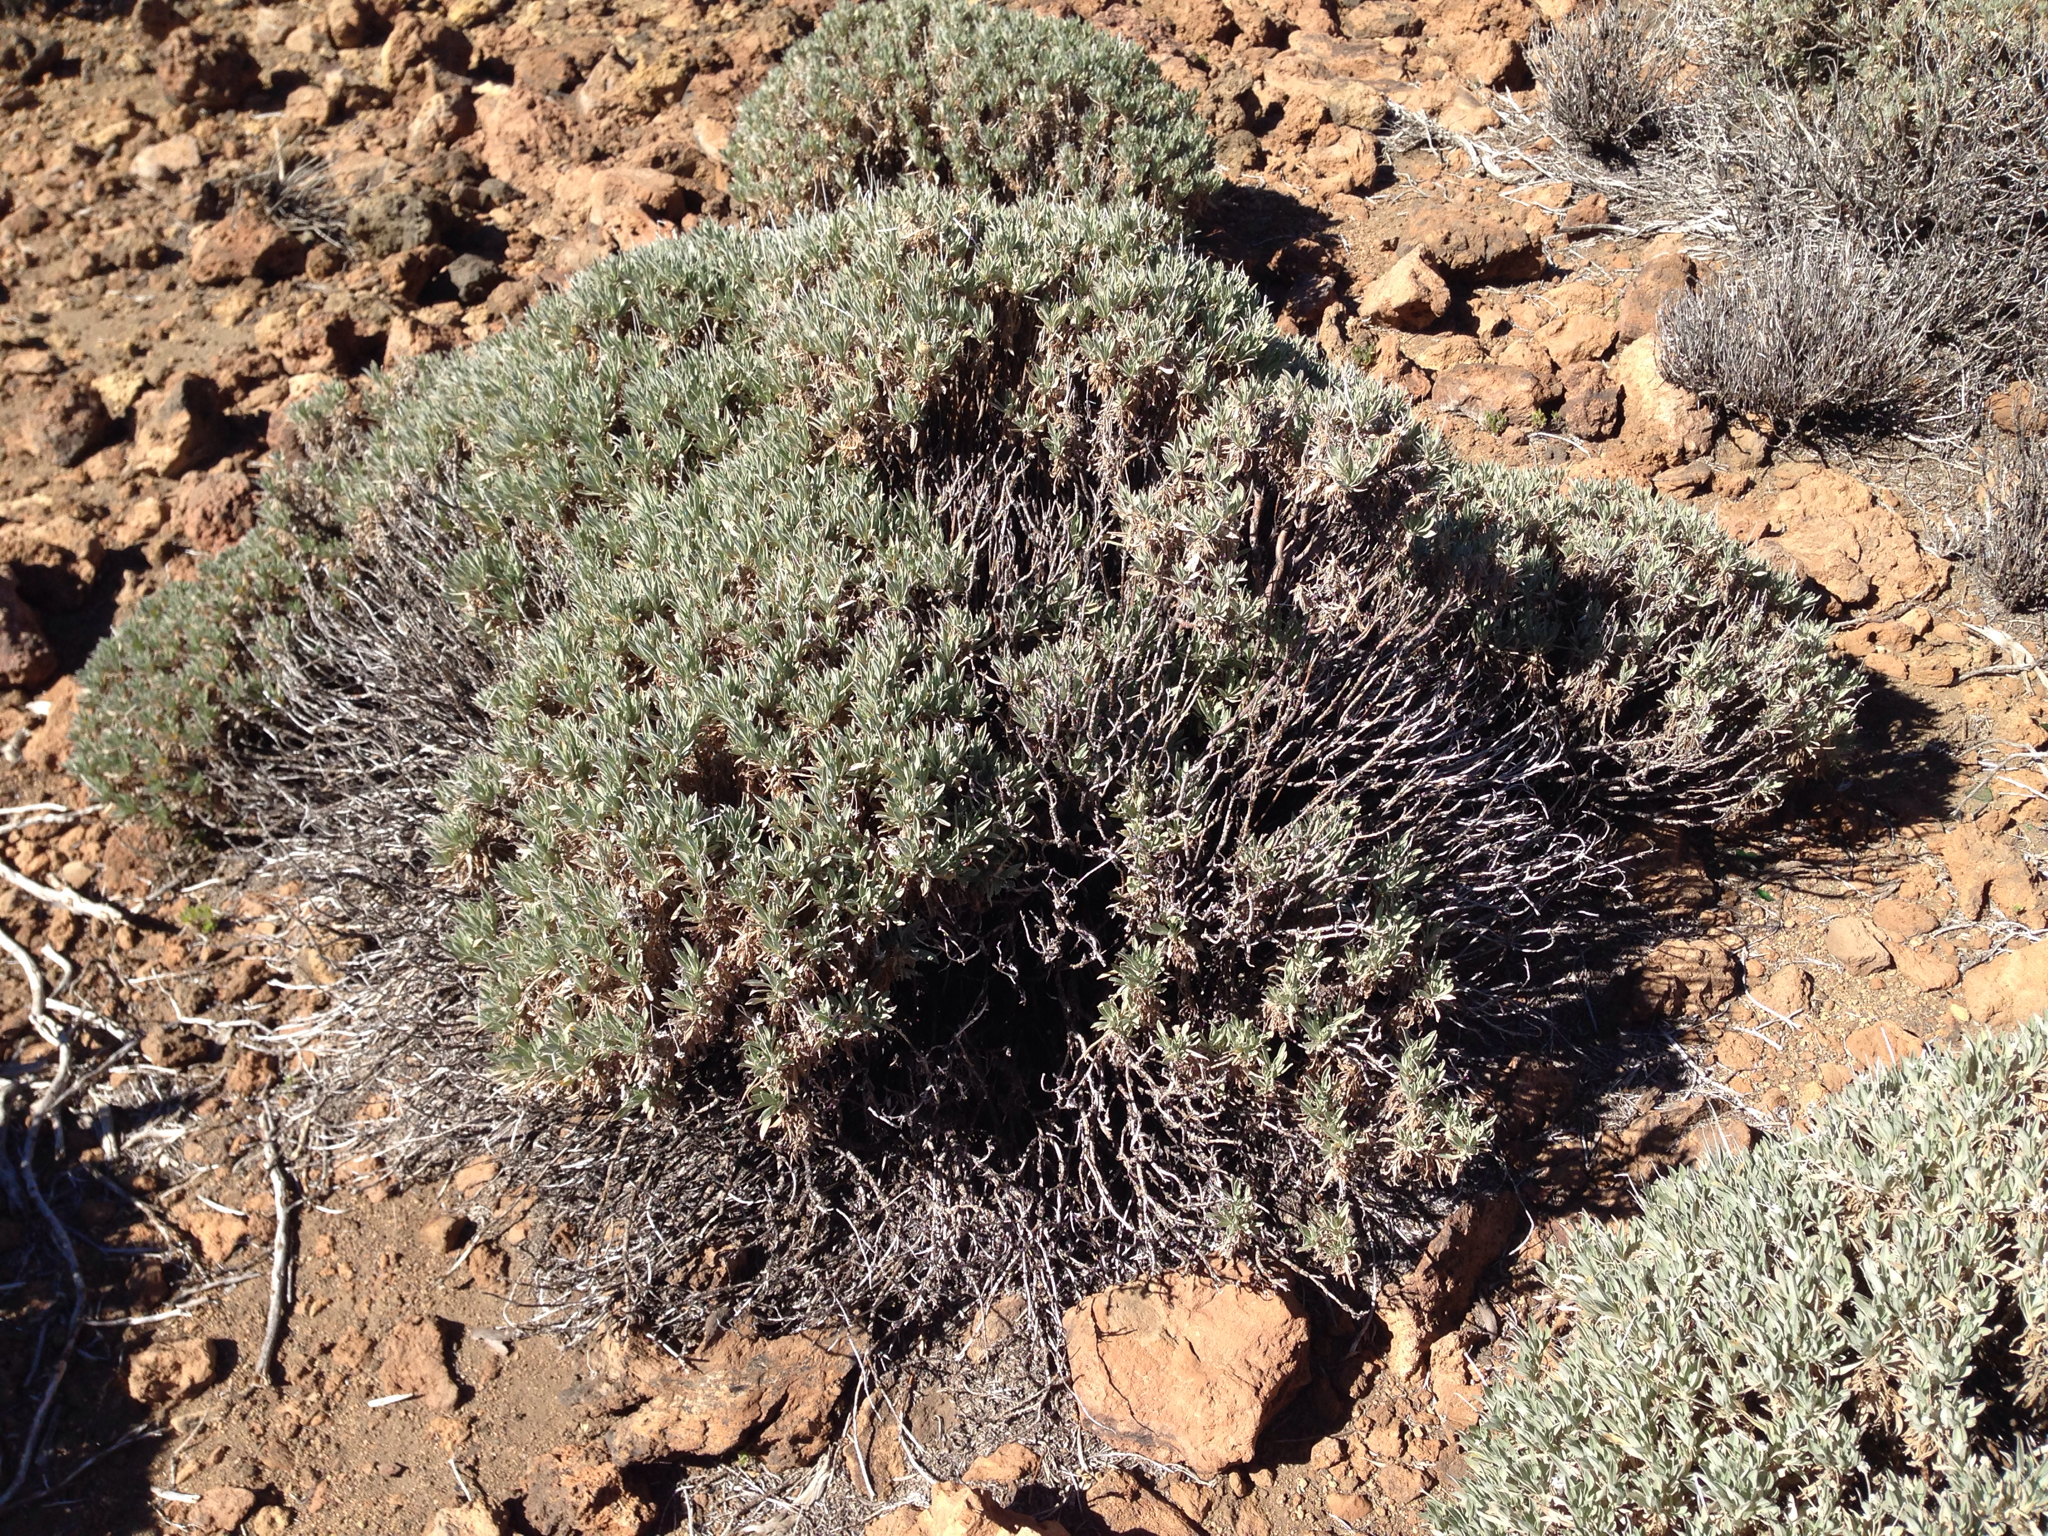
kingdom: Plantae
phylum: Tracheophyta
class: Magnoliopsida
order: Dipsacales
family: Caprifoliaceae
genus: Pterocephalus
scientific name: Pterocephalus lasiospermus
